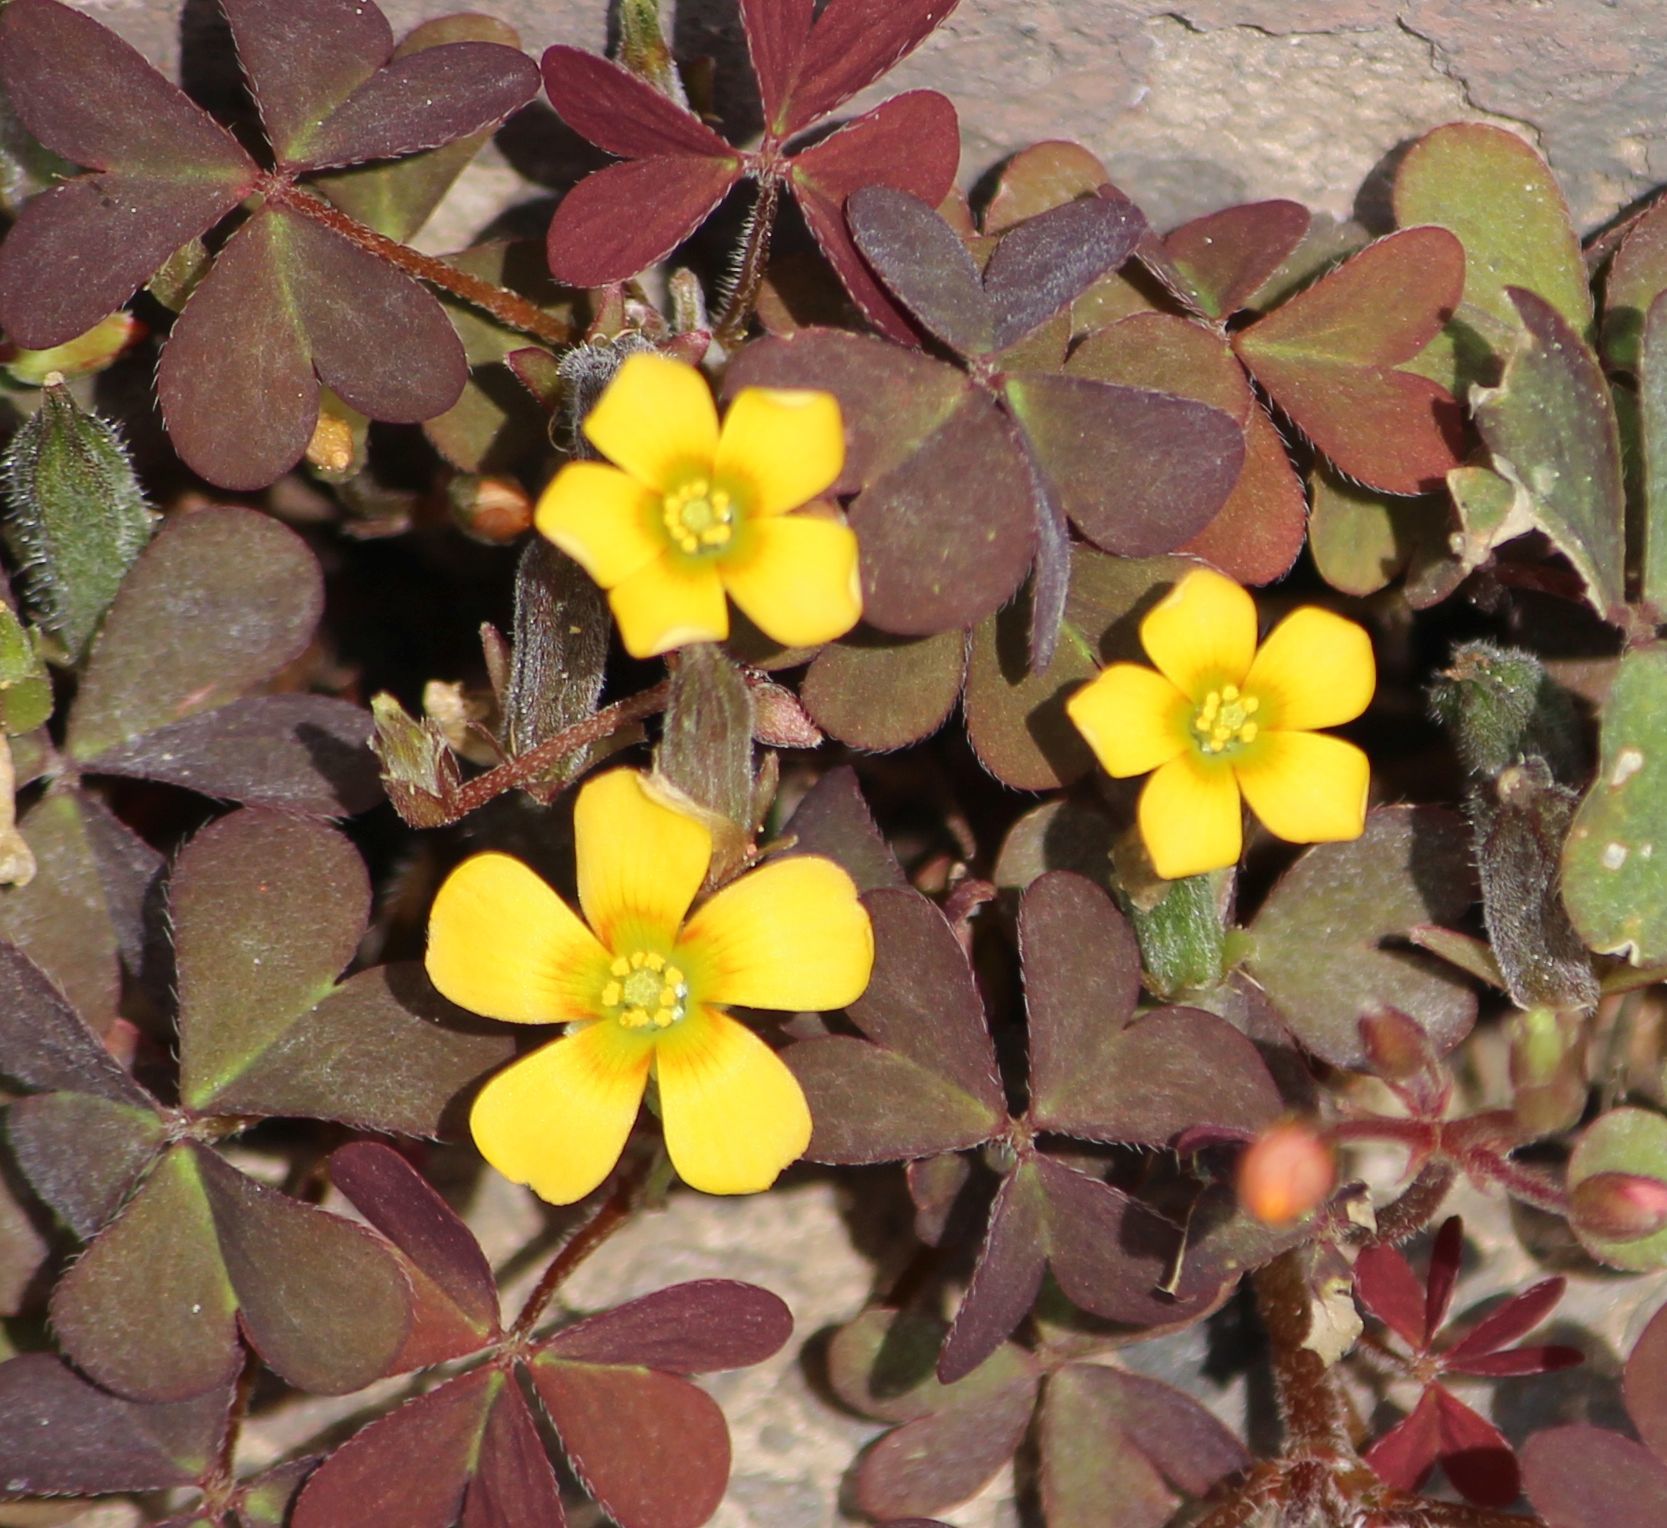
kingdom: Plantae
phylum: Tracheophyta
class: Magnoliopsida
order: Oxalidales
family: Oxalidaceae
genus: Oxalis
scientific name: Oxalis corniculata
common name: Procumbent yellow-sorrel
